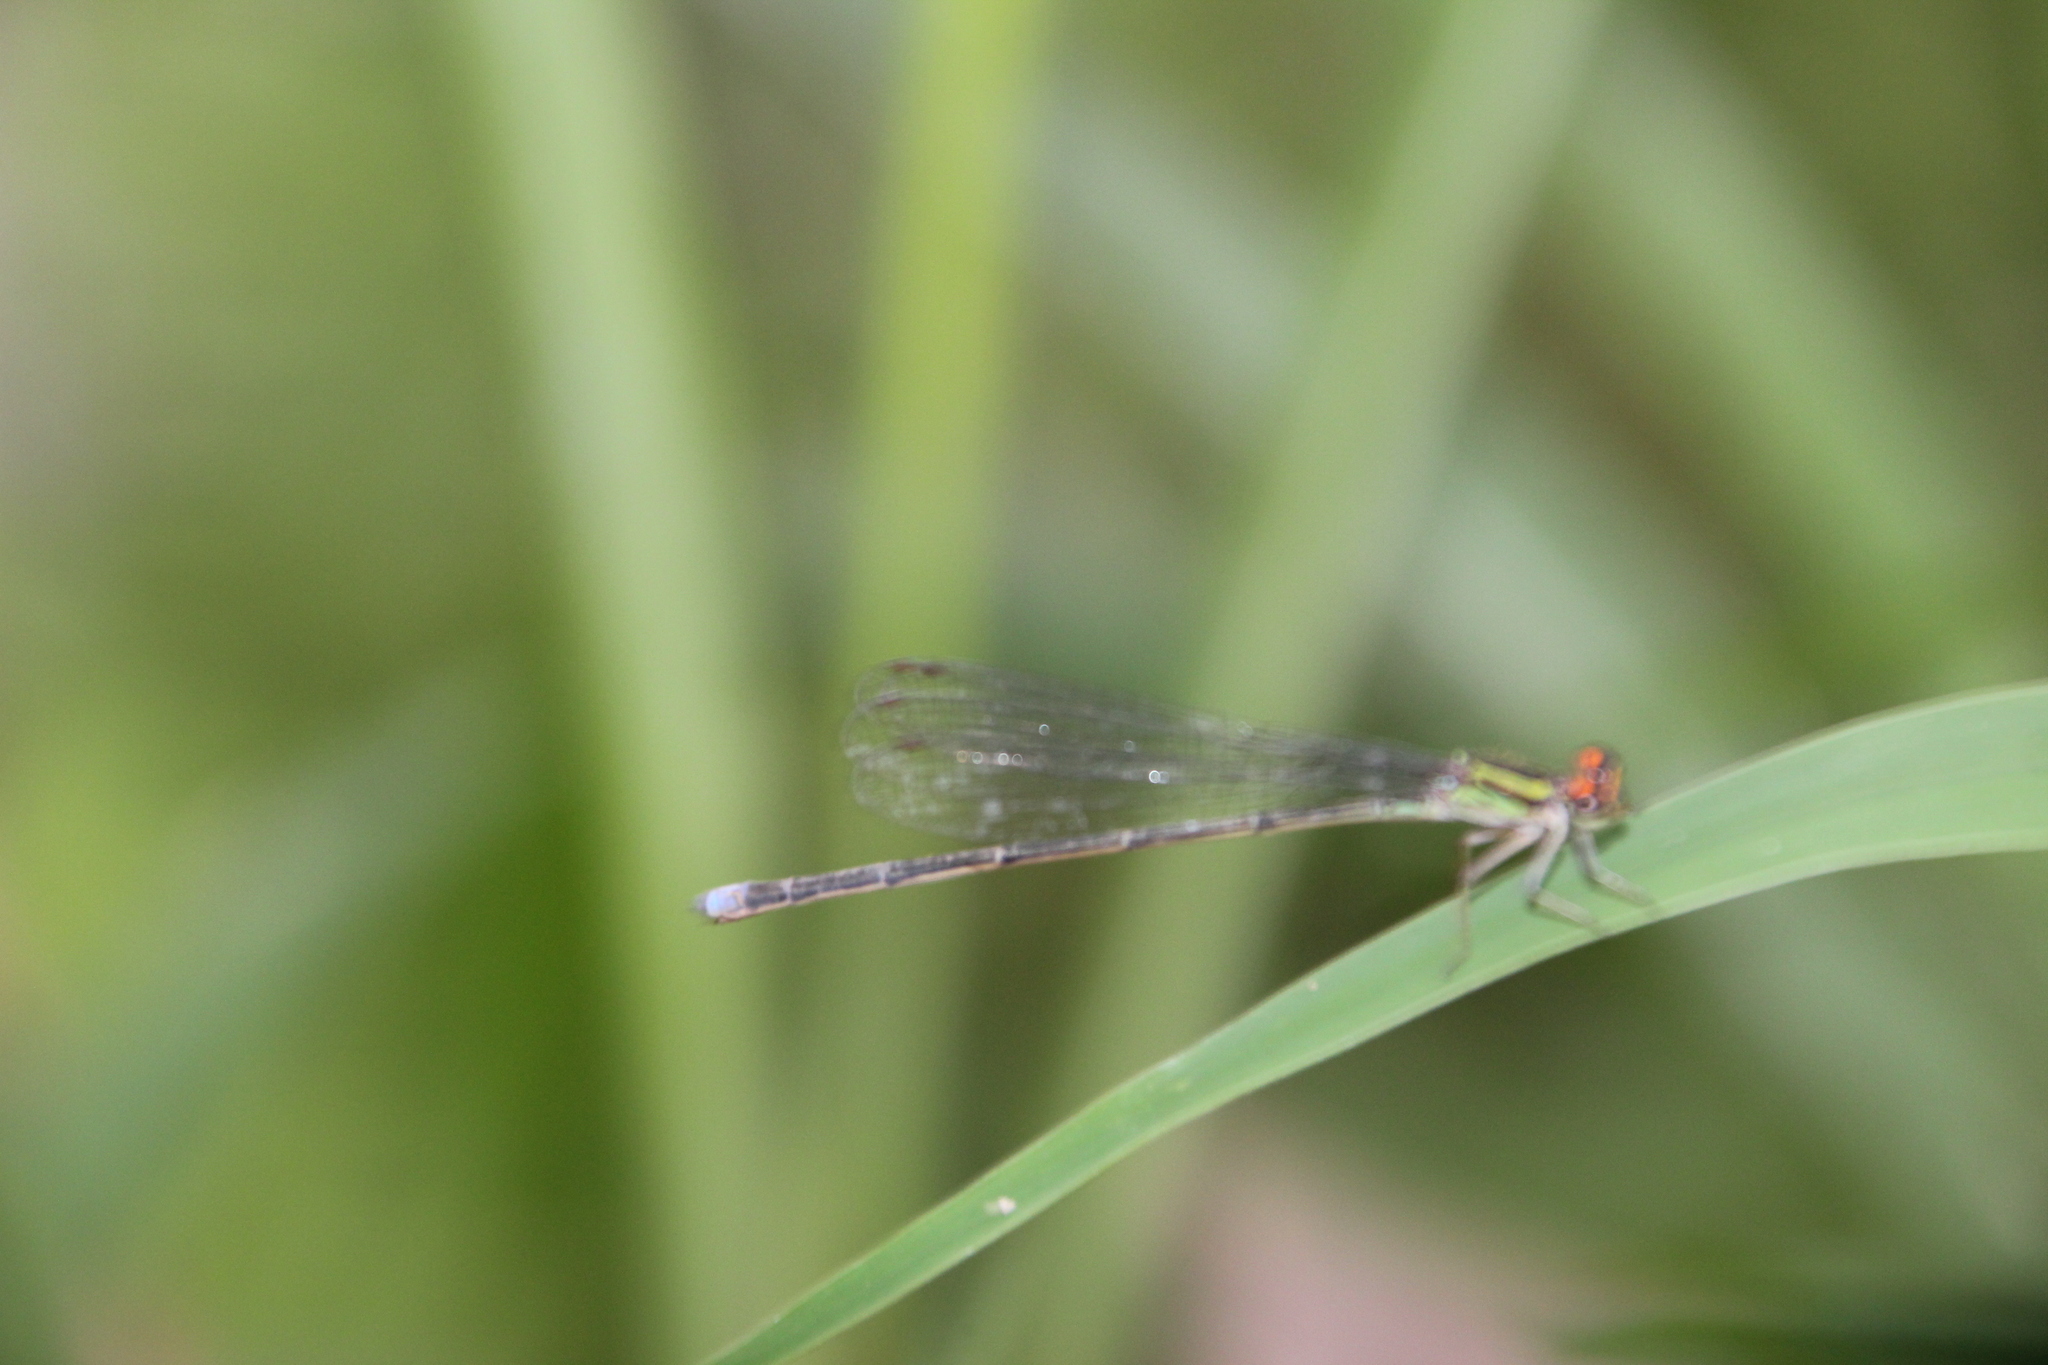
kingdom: Animalia
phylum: Arthropoda
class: Insecta
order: Odonata
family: Coenagrionidae
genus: Pseudagrion
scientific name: Pseudagrion hageni
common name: Painted sprite
